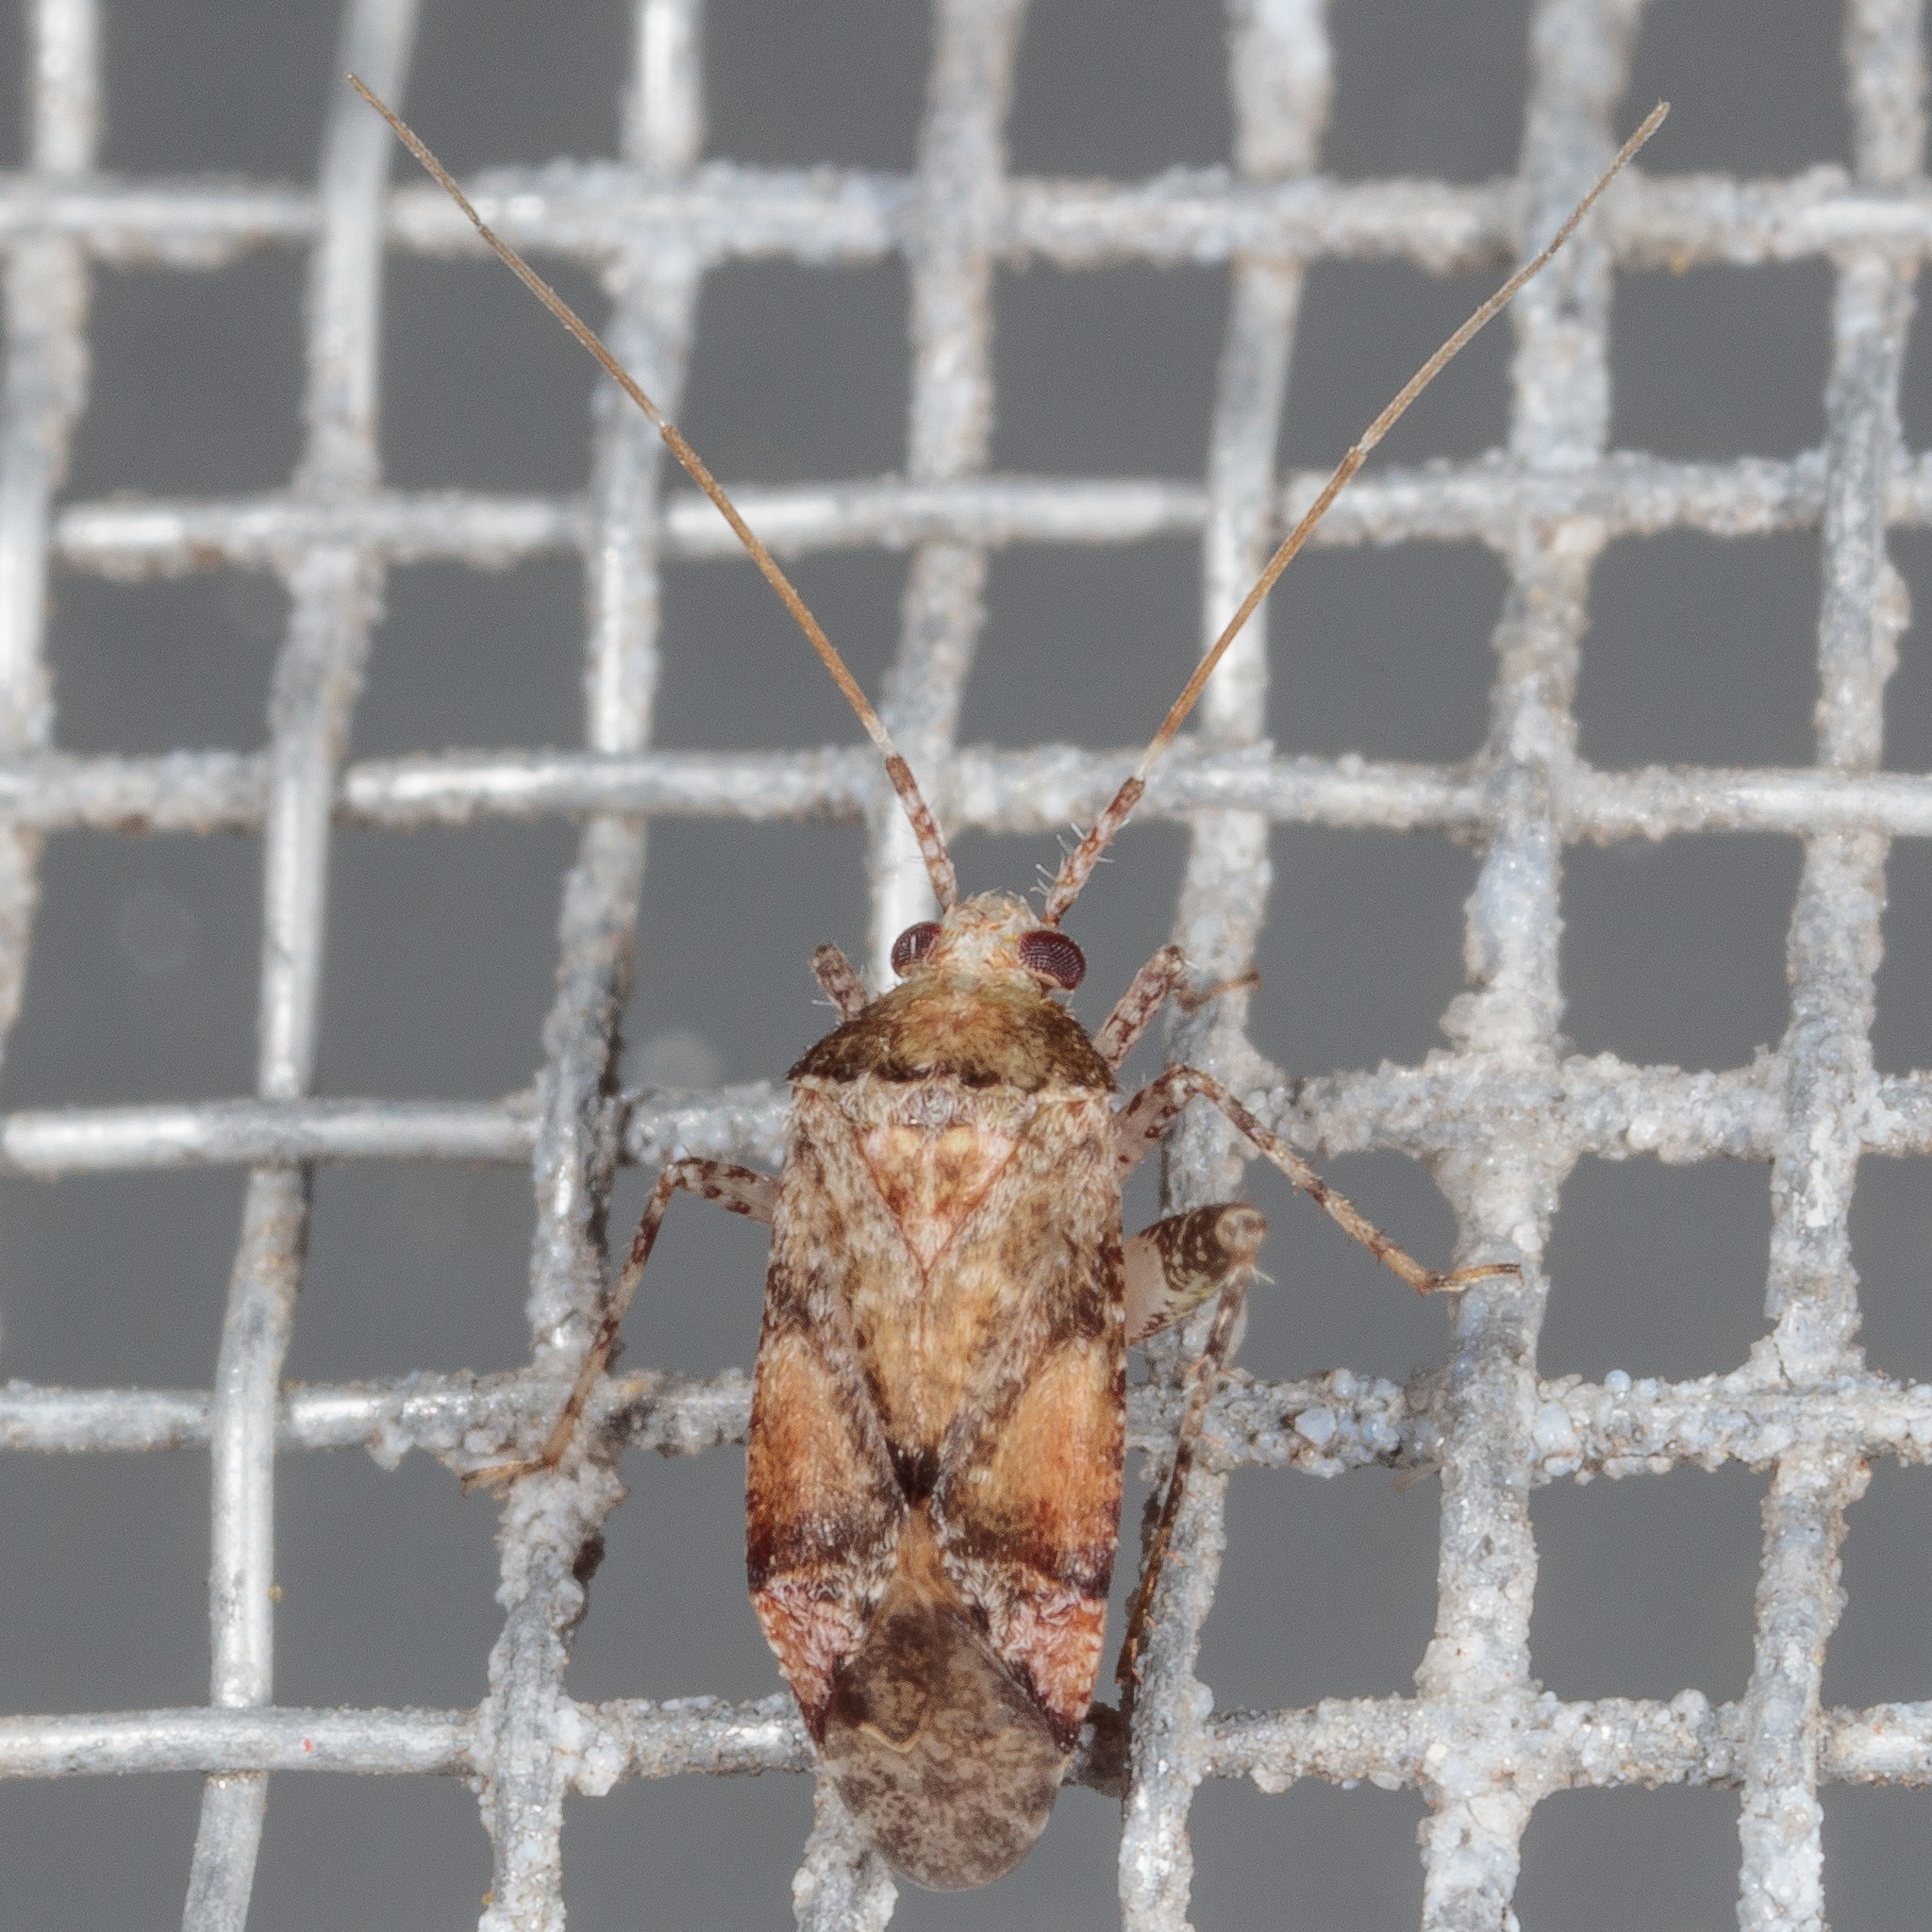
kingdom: Animalia
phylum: Arthropoda
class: Insecta
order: Hemiptera
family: Miridae
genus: Phytocoris
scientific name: Phytocoris breviusculus
